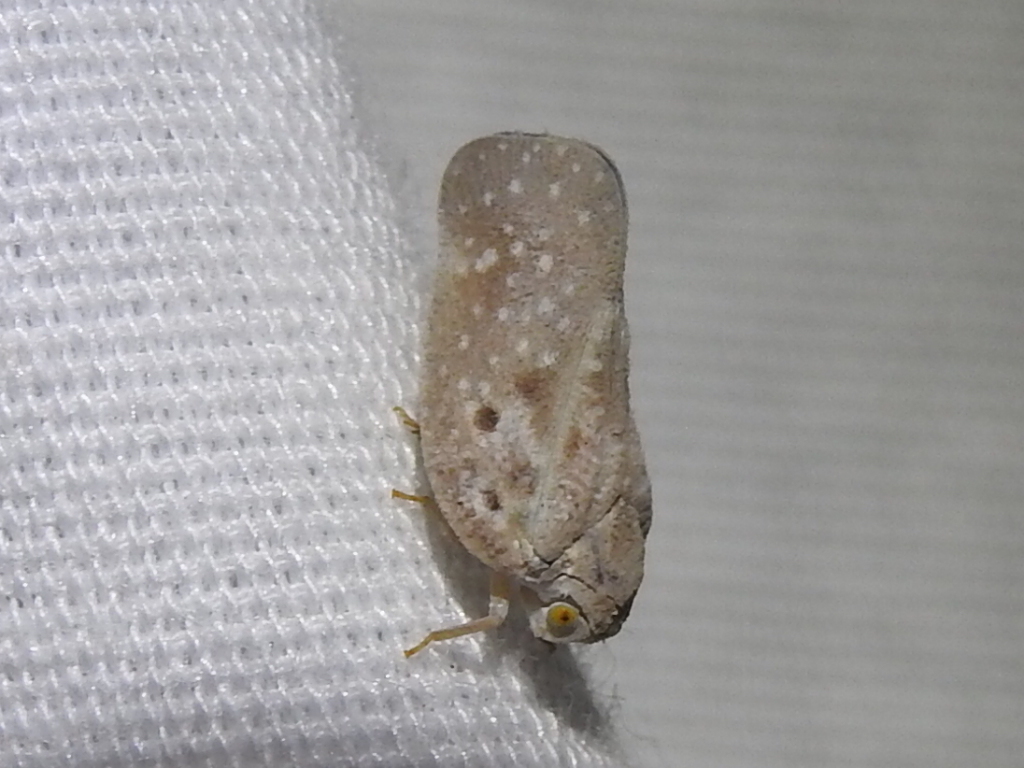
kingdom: Animalia
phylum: Arthropoda
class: Insecta
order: Hemiptera
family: Flatidae
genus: Metcalfa
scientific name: Metcalfa pruinosa
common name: Citrus flatid planthopper
